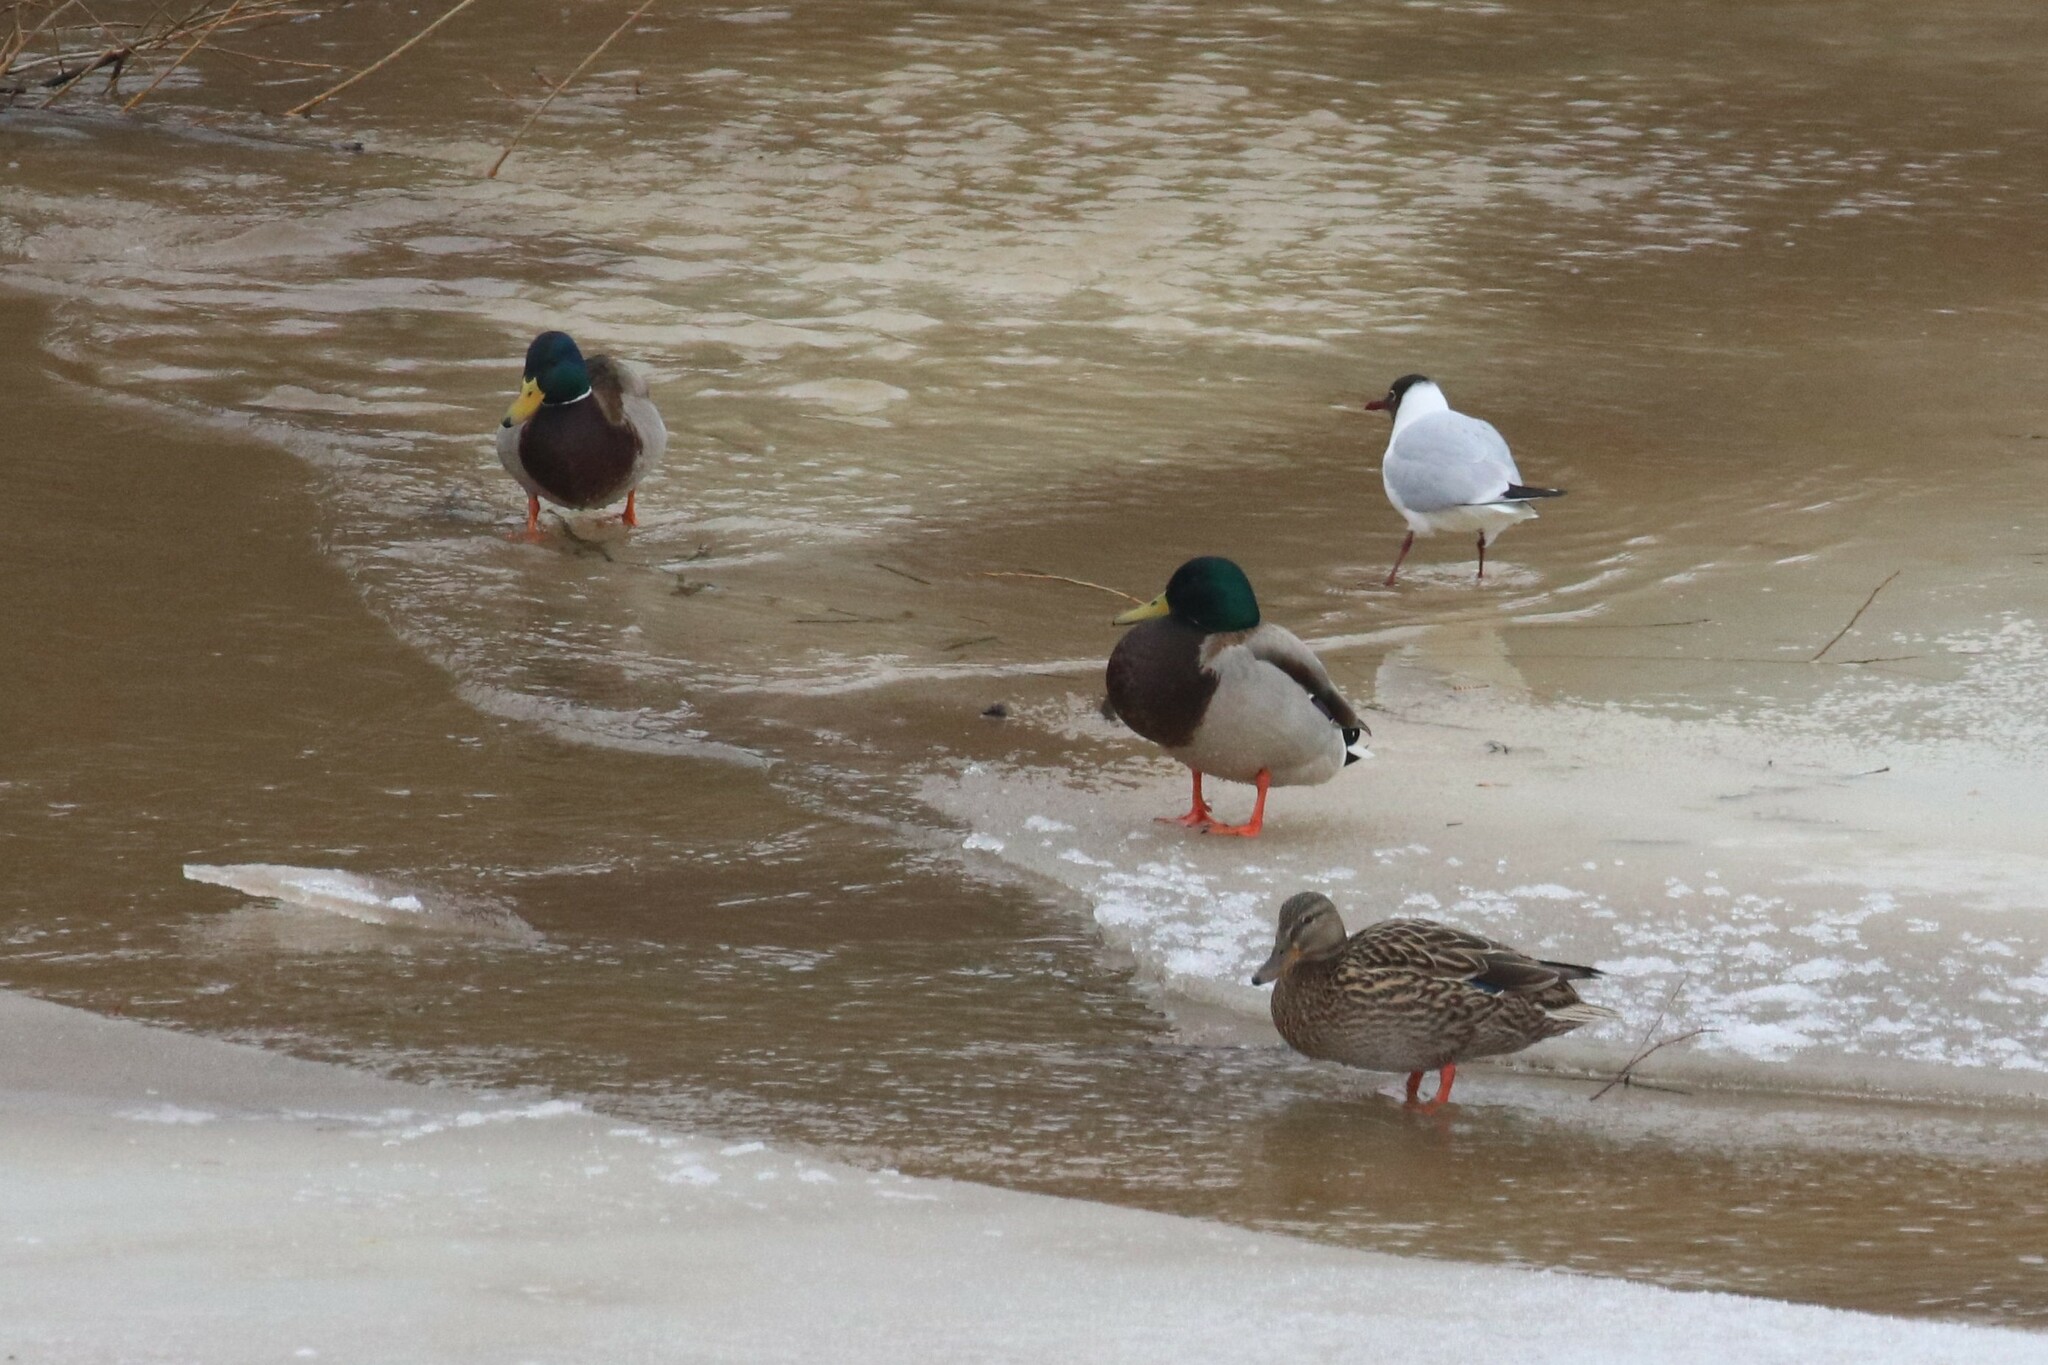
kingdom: Animalia
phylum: Chordata
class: Aves
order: Anseriformes
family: Anatidae
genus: Anas
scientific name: Anas platyrhynchos
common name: Mallard
